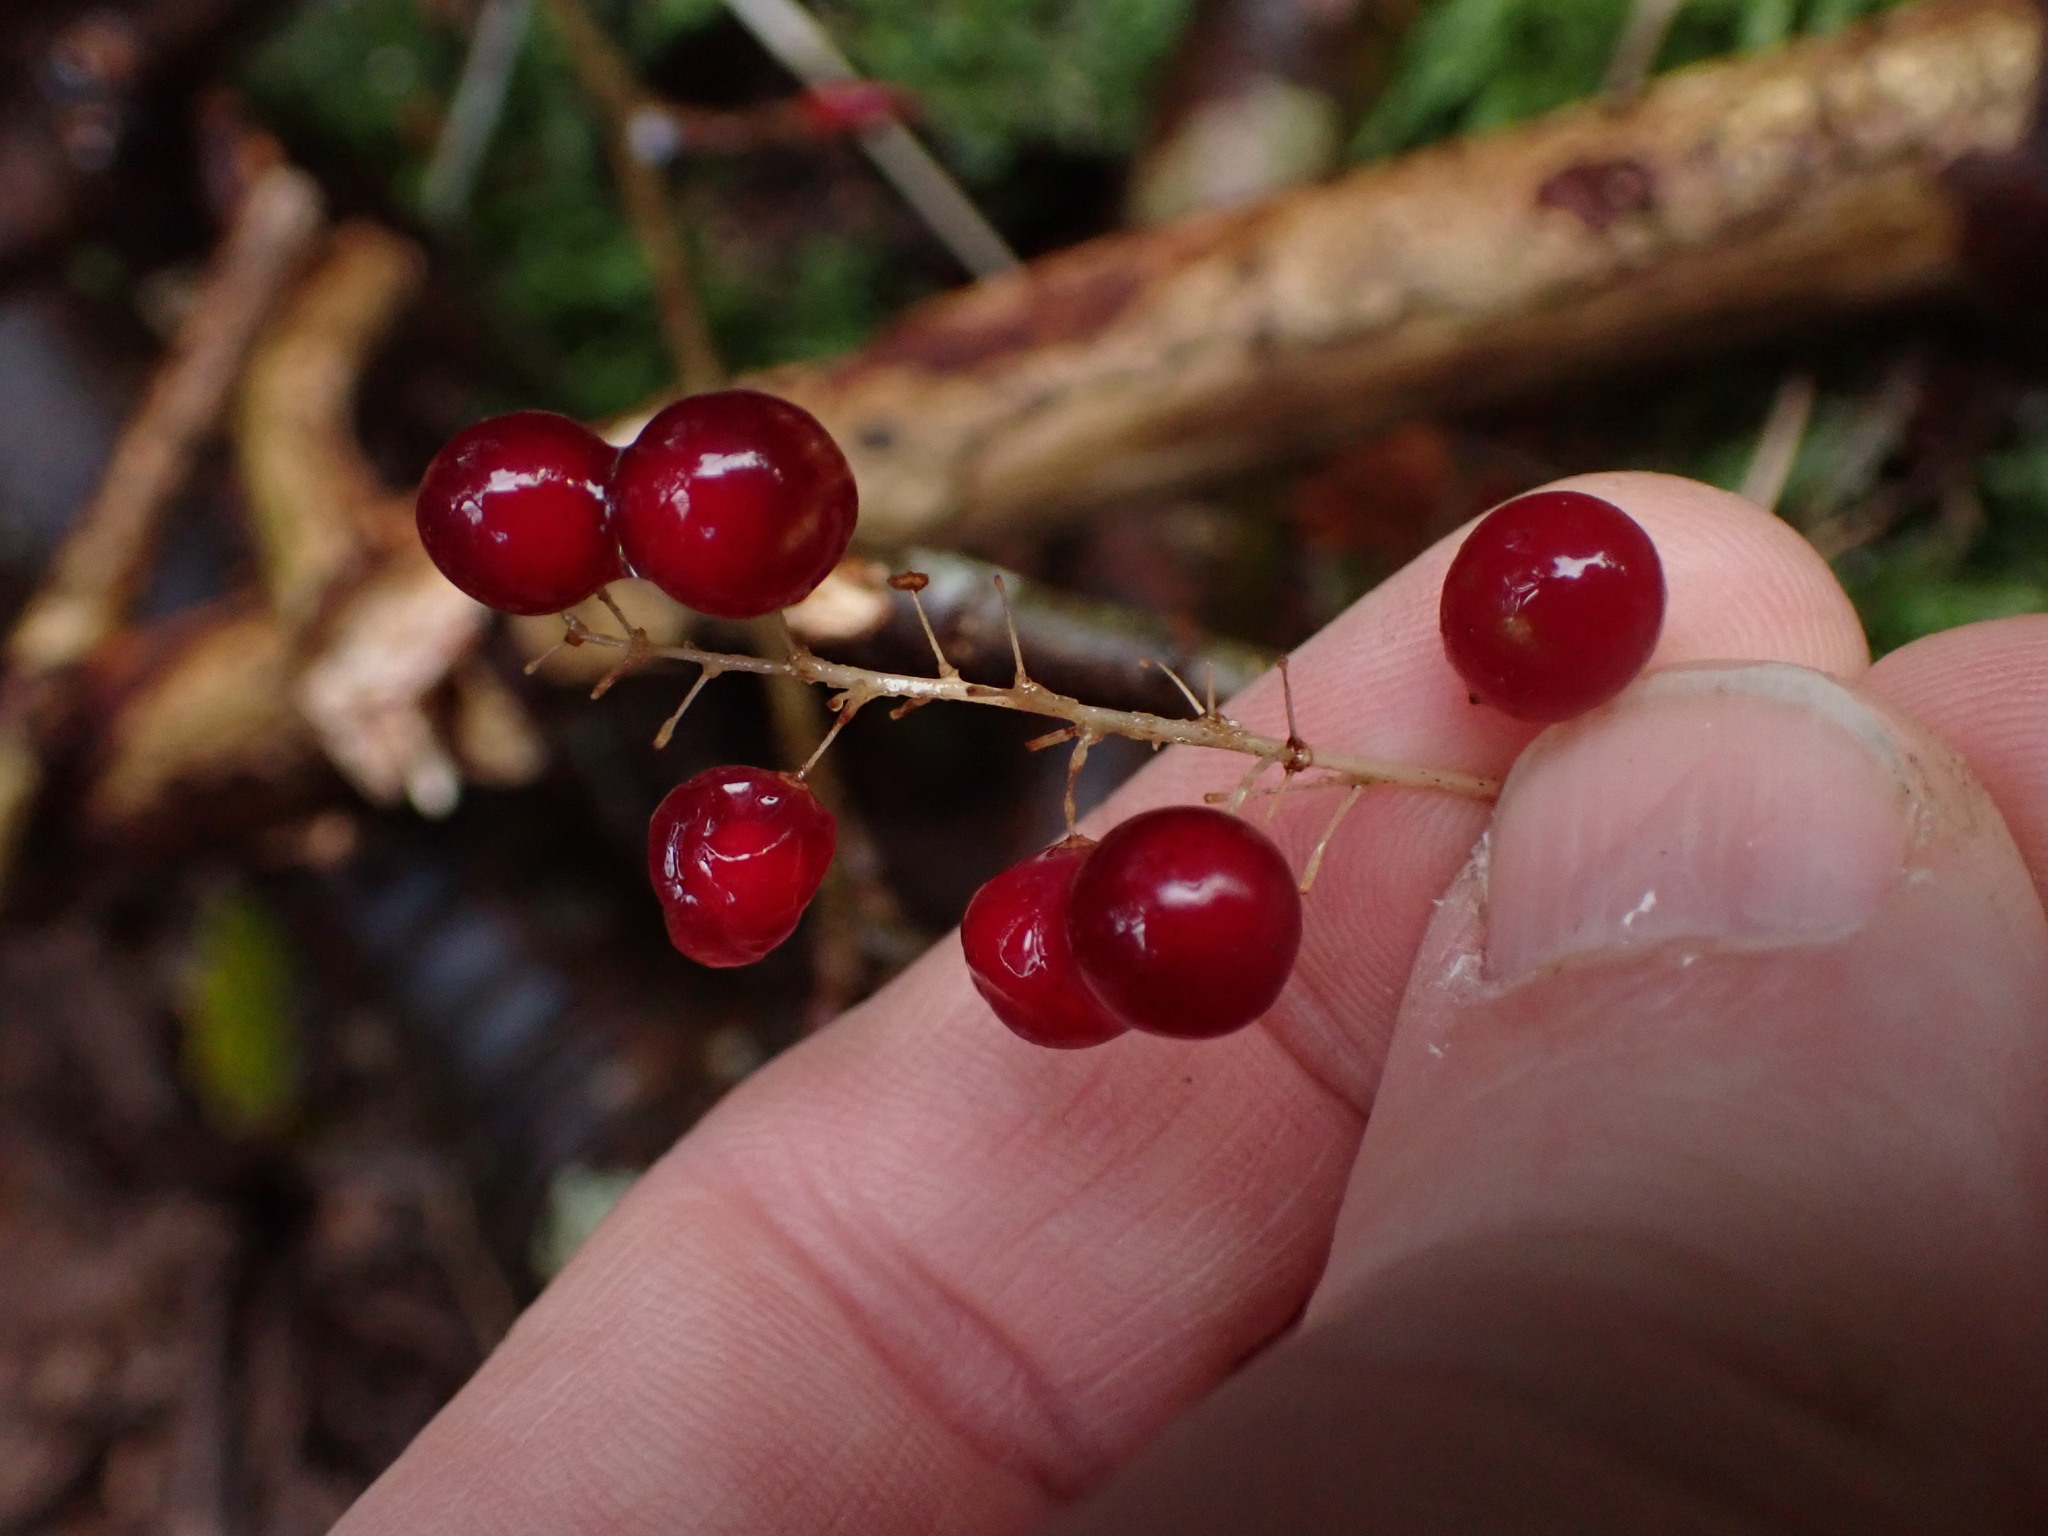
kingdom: Plantae
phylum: Tracheophyta
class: Liliopsida
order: Asparagales
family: Asparagaceae
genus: Maianthemum
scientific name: Maianthemum dilatatum
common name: False lily-of-the-valley
